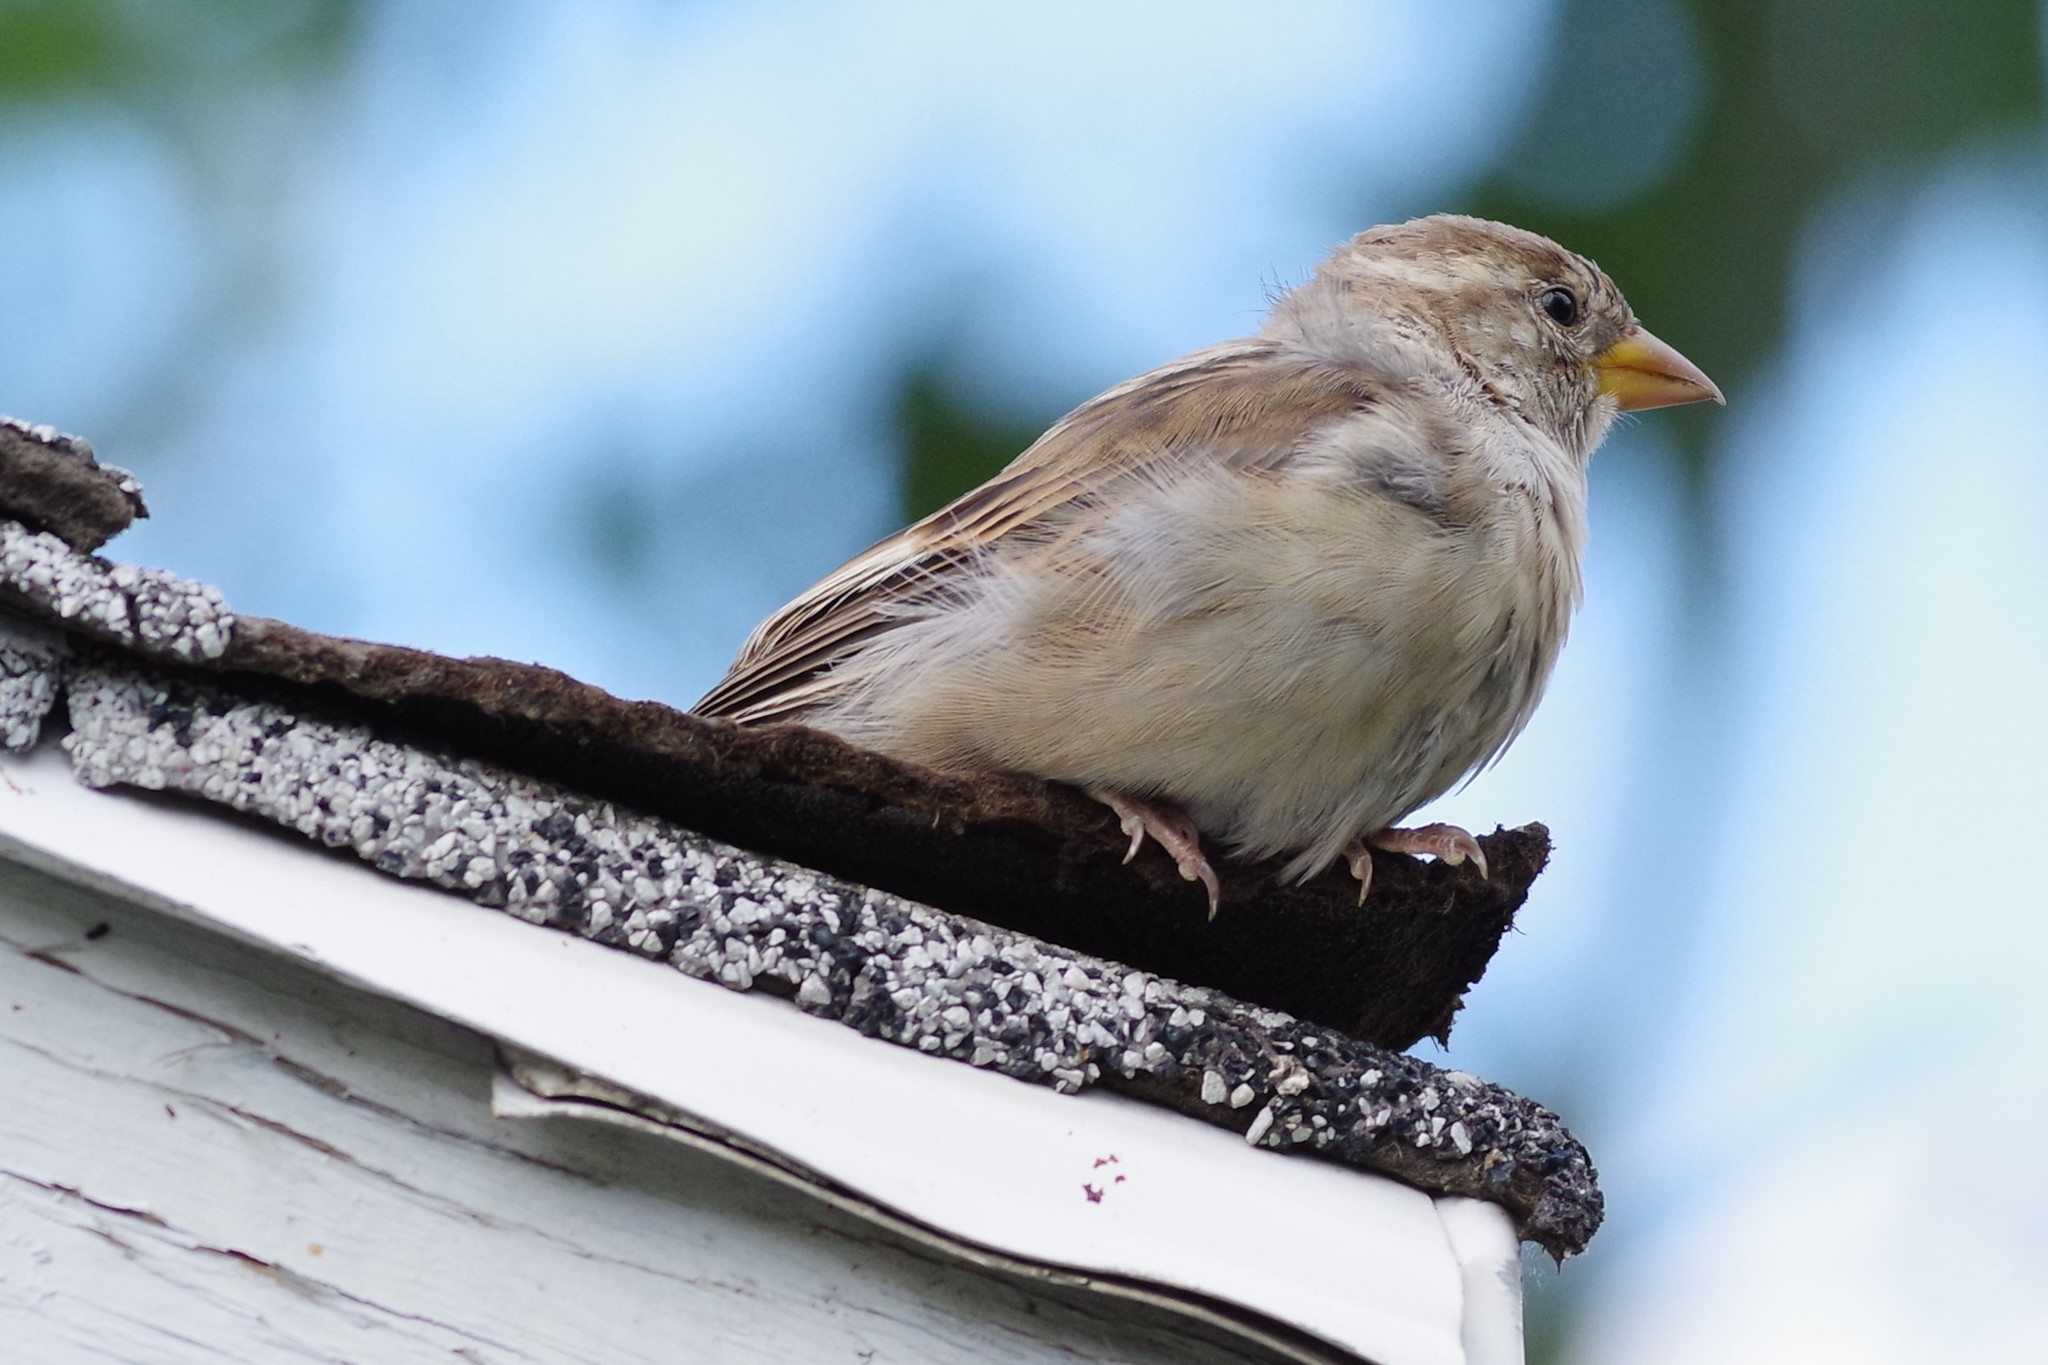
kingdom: Animalia
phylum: Chordata
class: Aves
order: Passeriformes
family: Passeridae
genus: Passer
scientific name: Passer domesticus
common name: House sparrow
